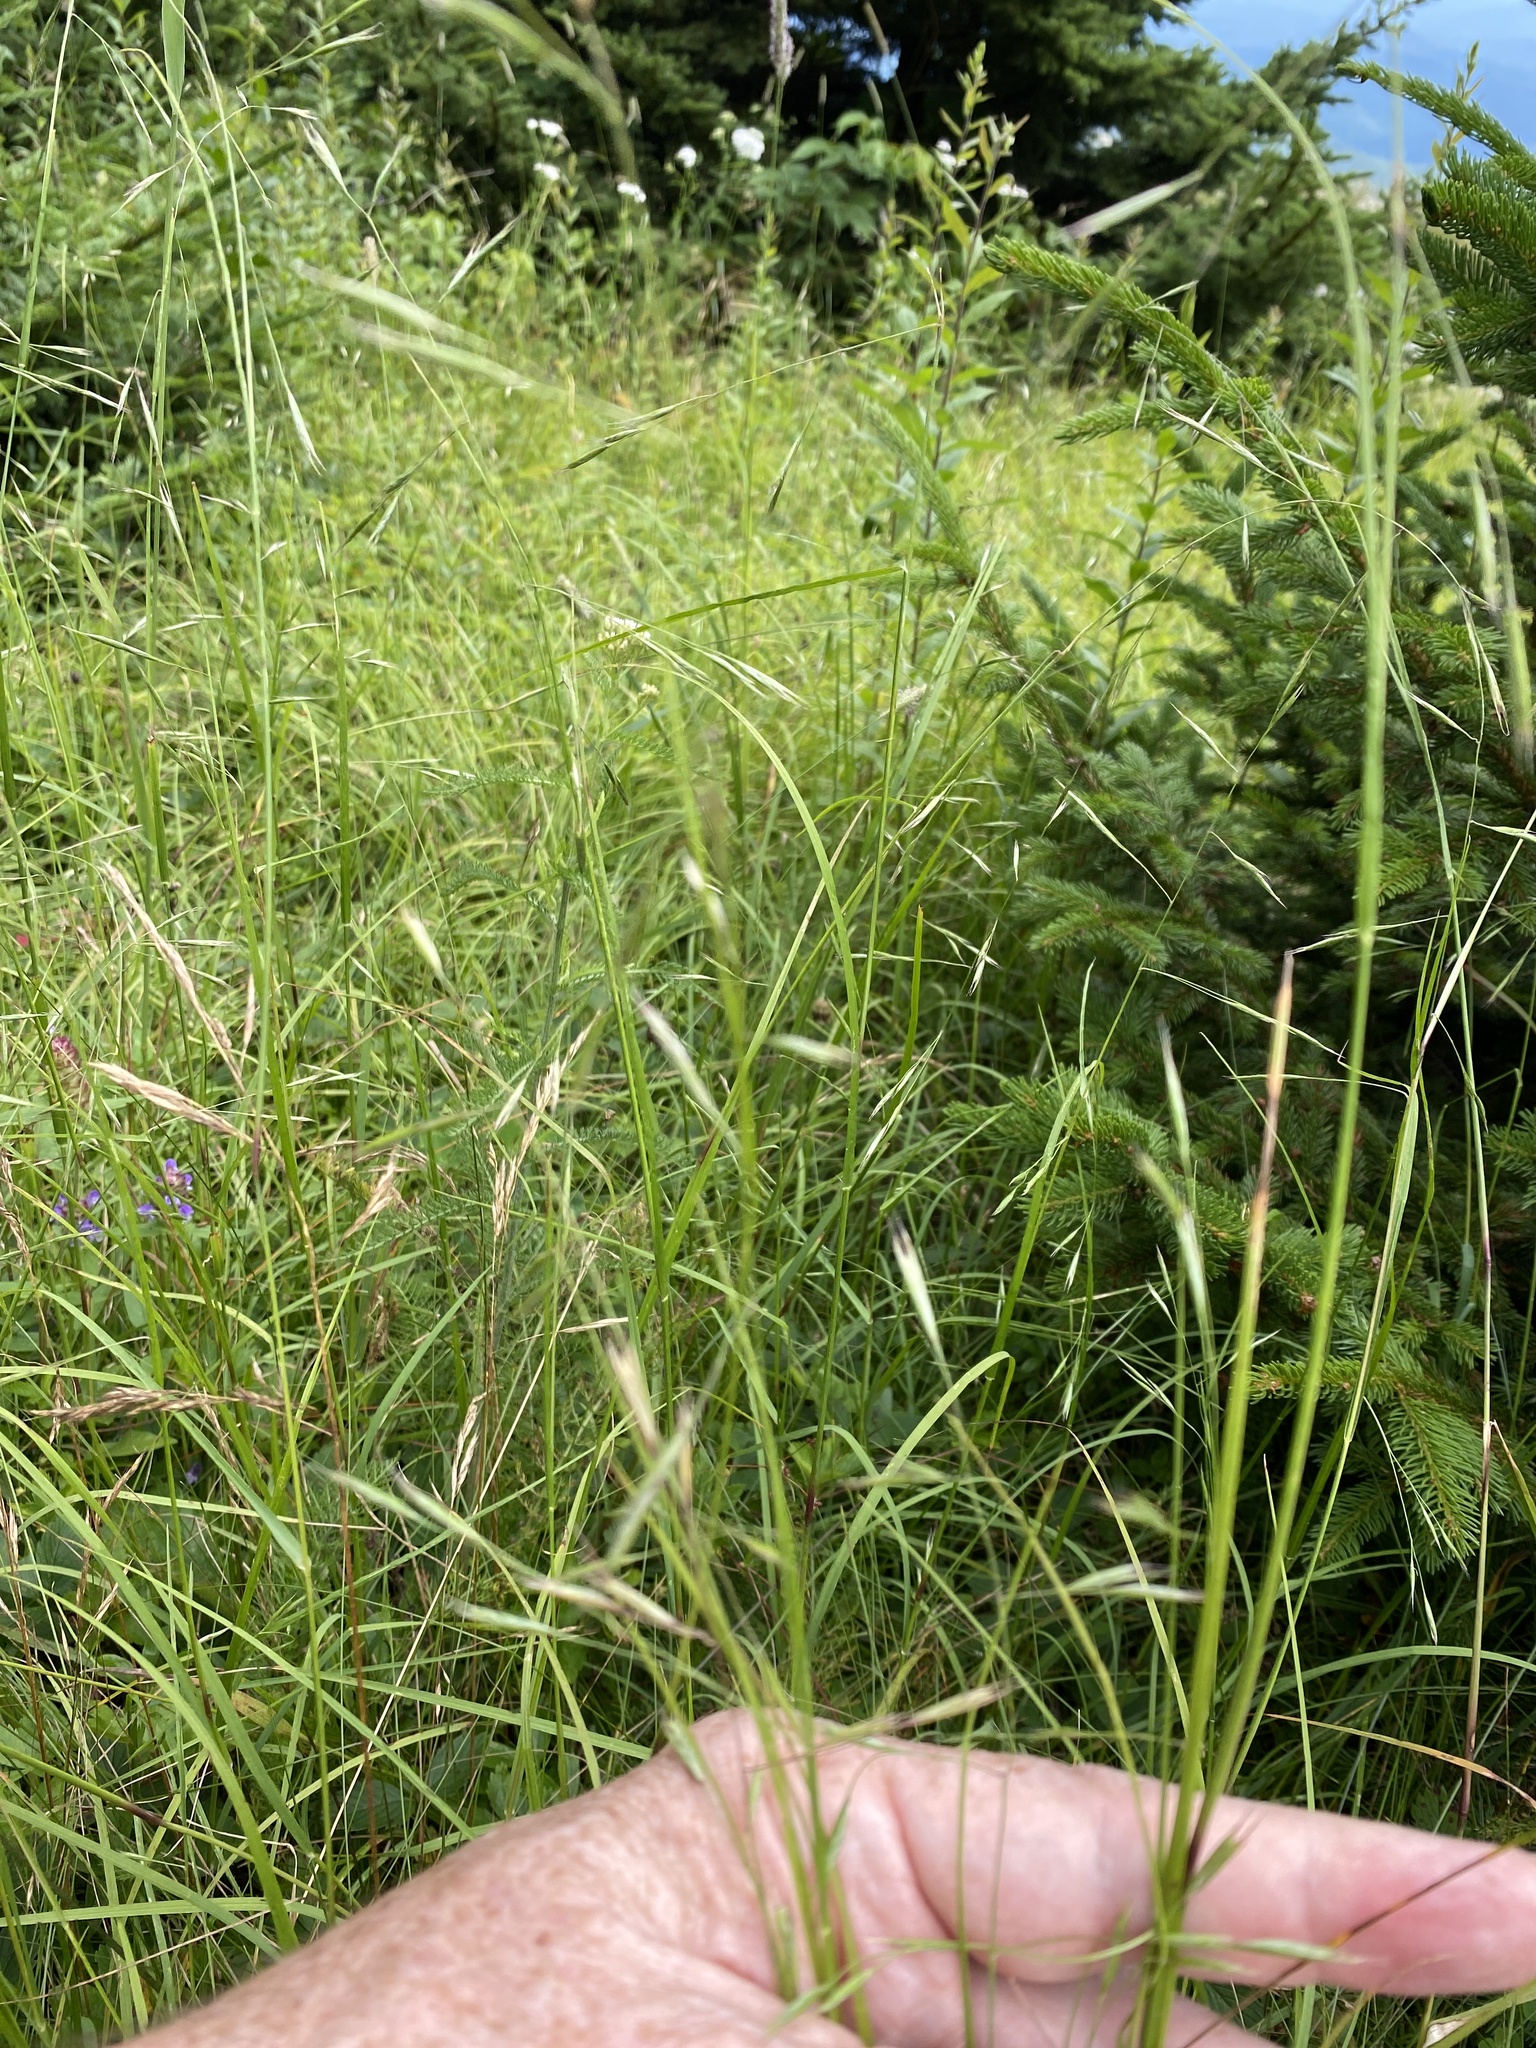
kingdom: Plantae
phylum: Tracheophyta
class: Liliopsida
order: Poales
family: Poaceae
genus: Danthonia
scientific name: Danthonia compressa
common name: Flat-stem oat grass
